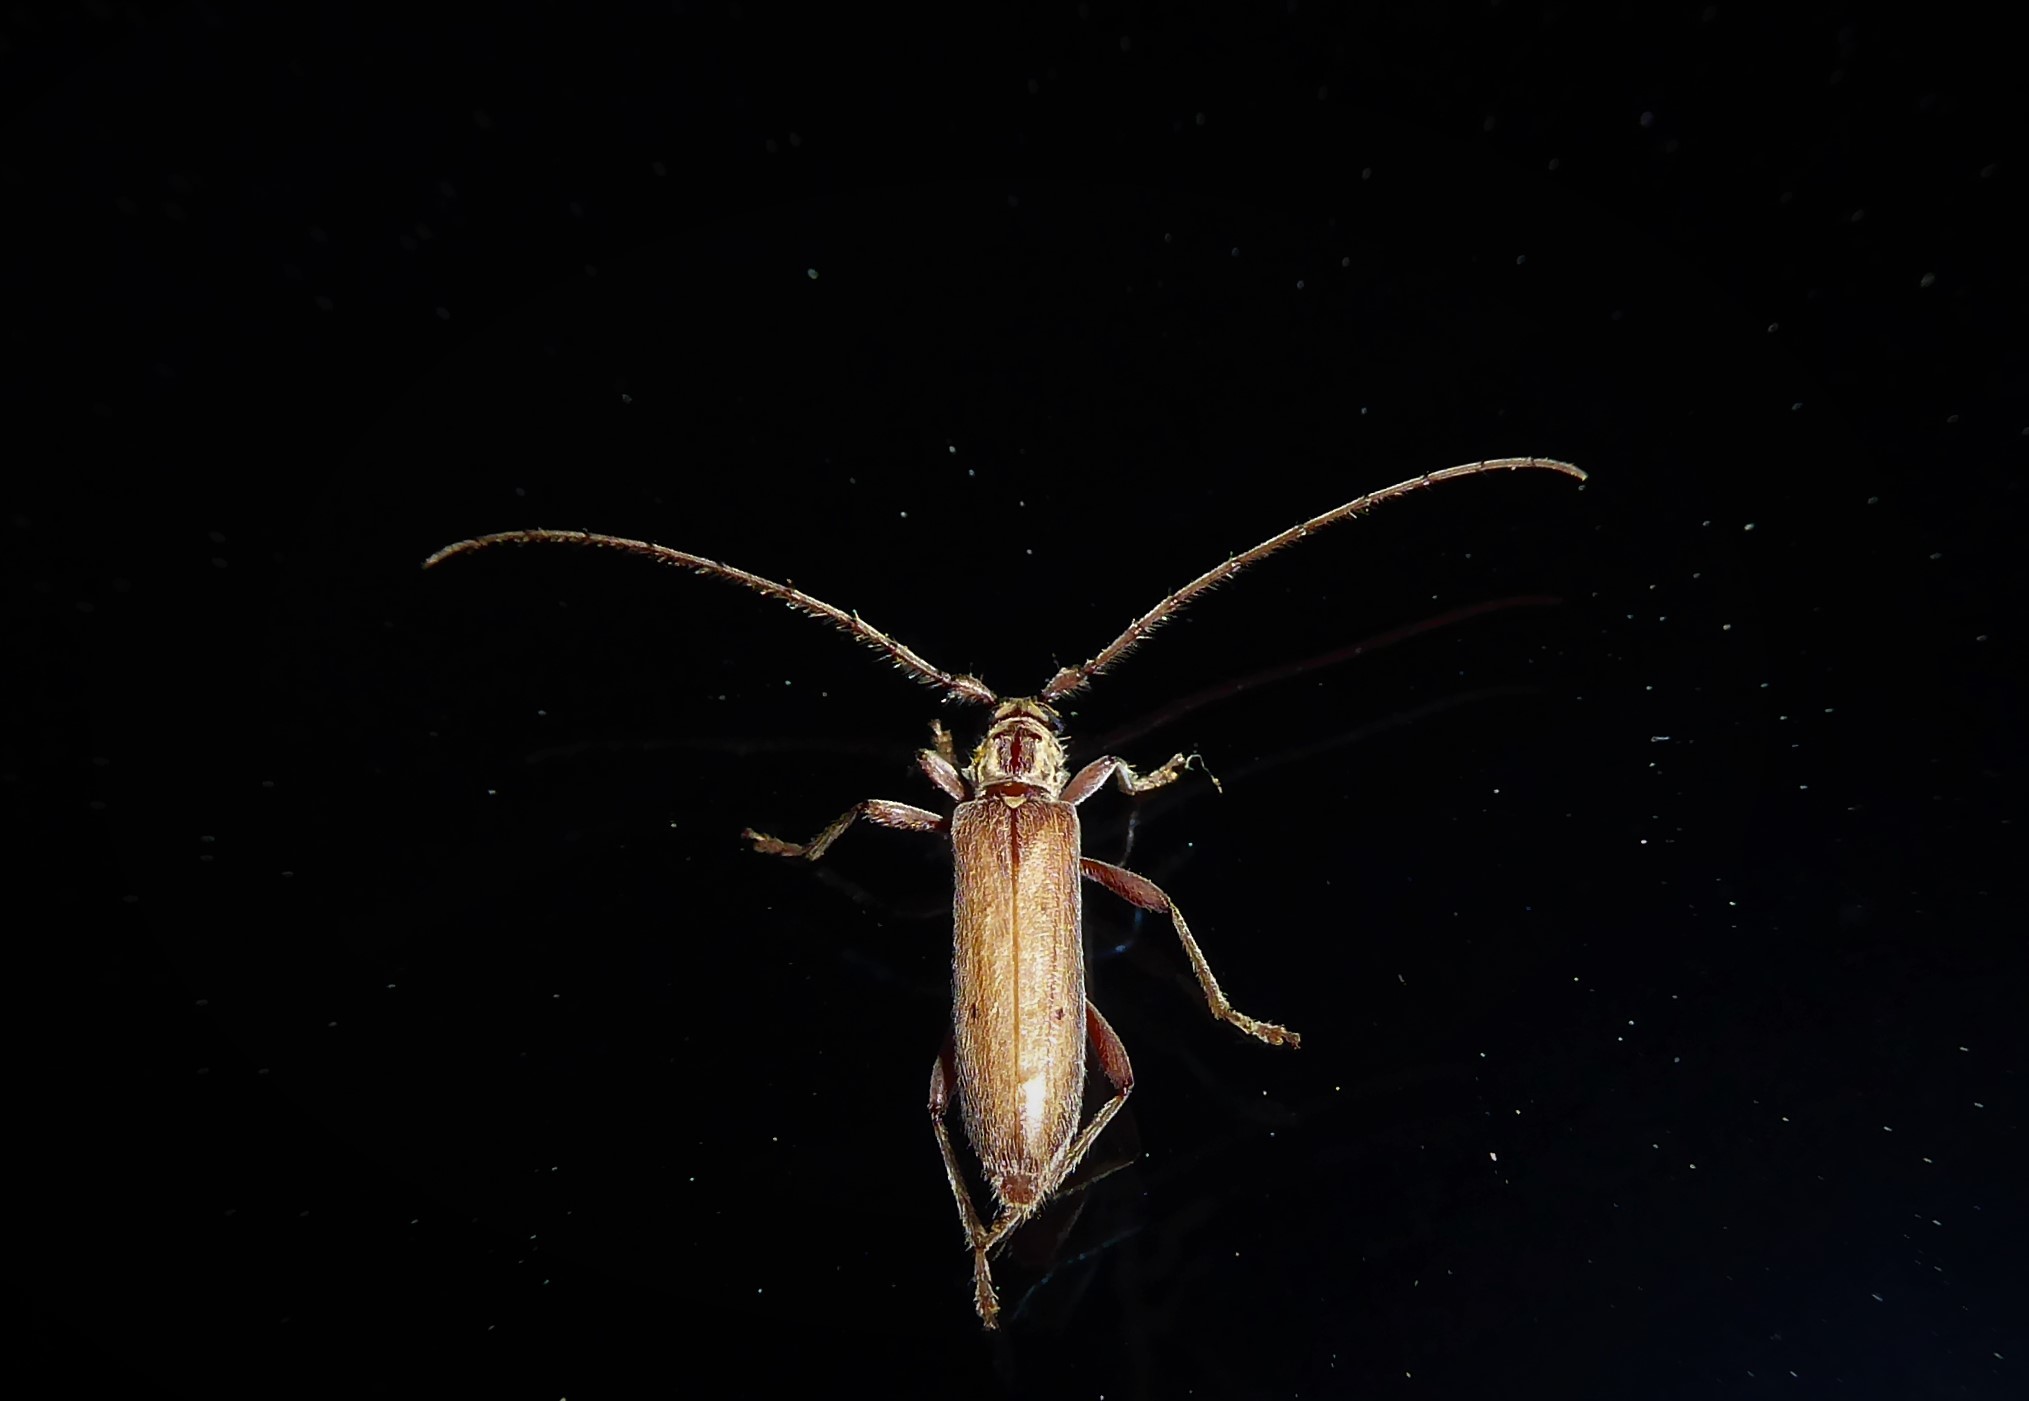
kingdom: Animalia
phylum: Arthropoda
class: Insecta
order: Coleoptera
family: Cerambycidae
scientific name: Cerambycidae
